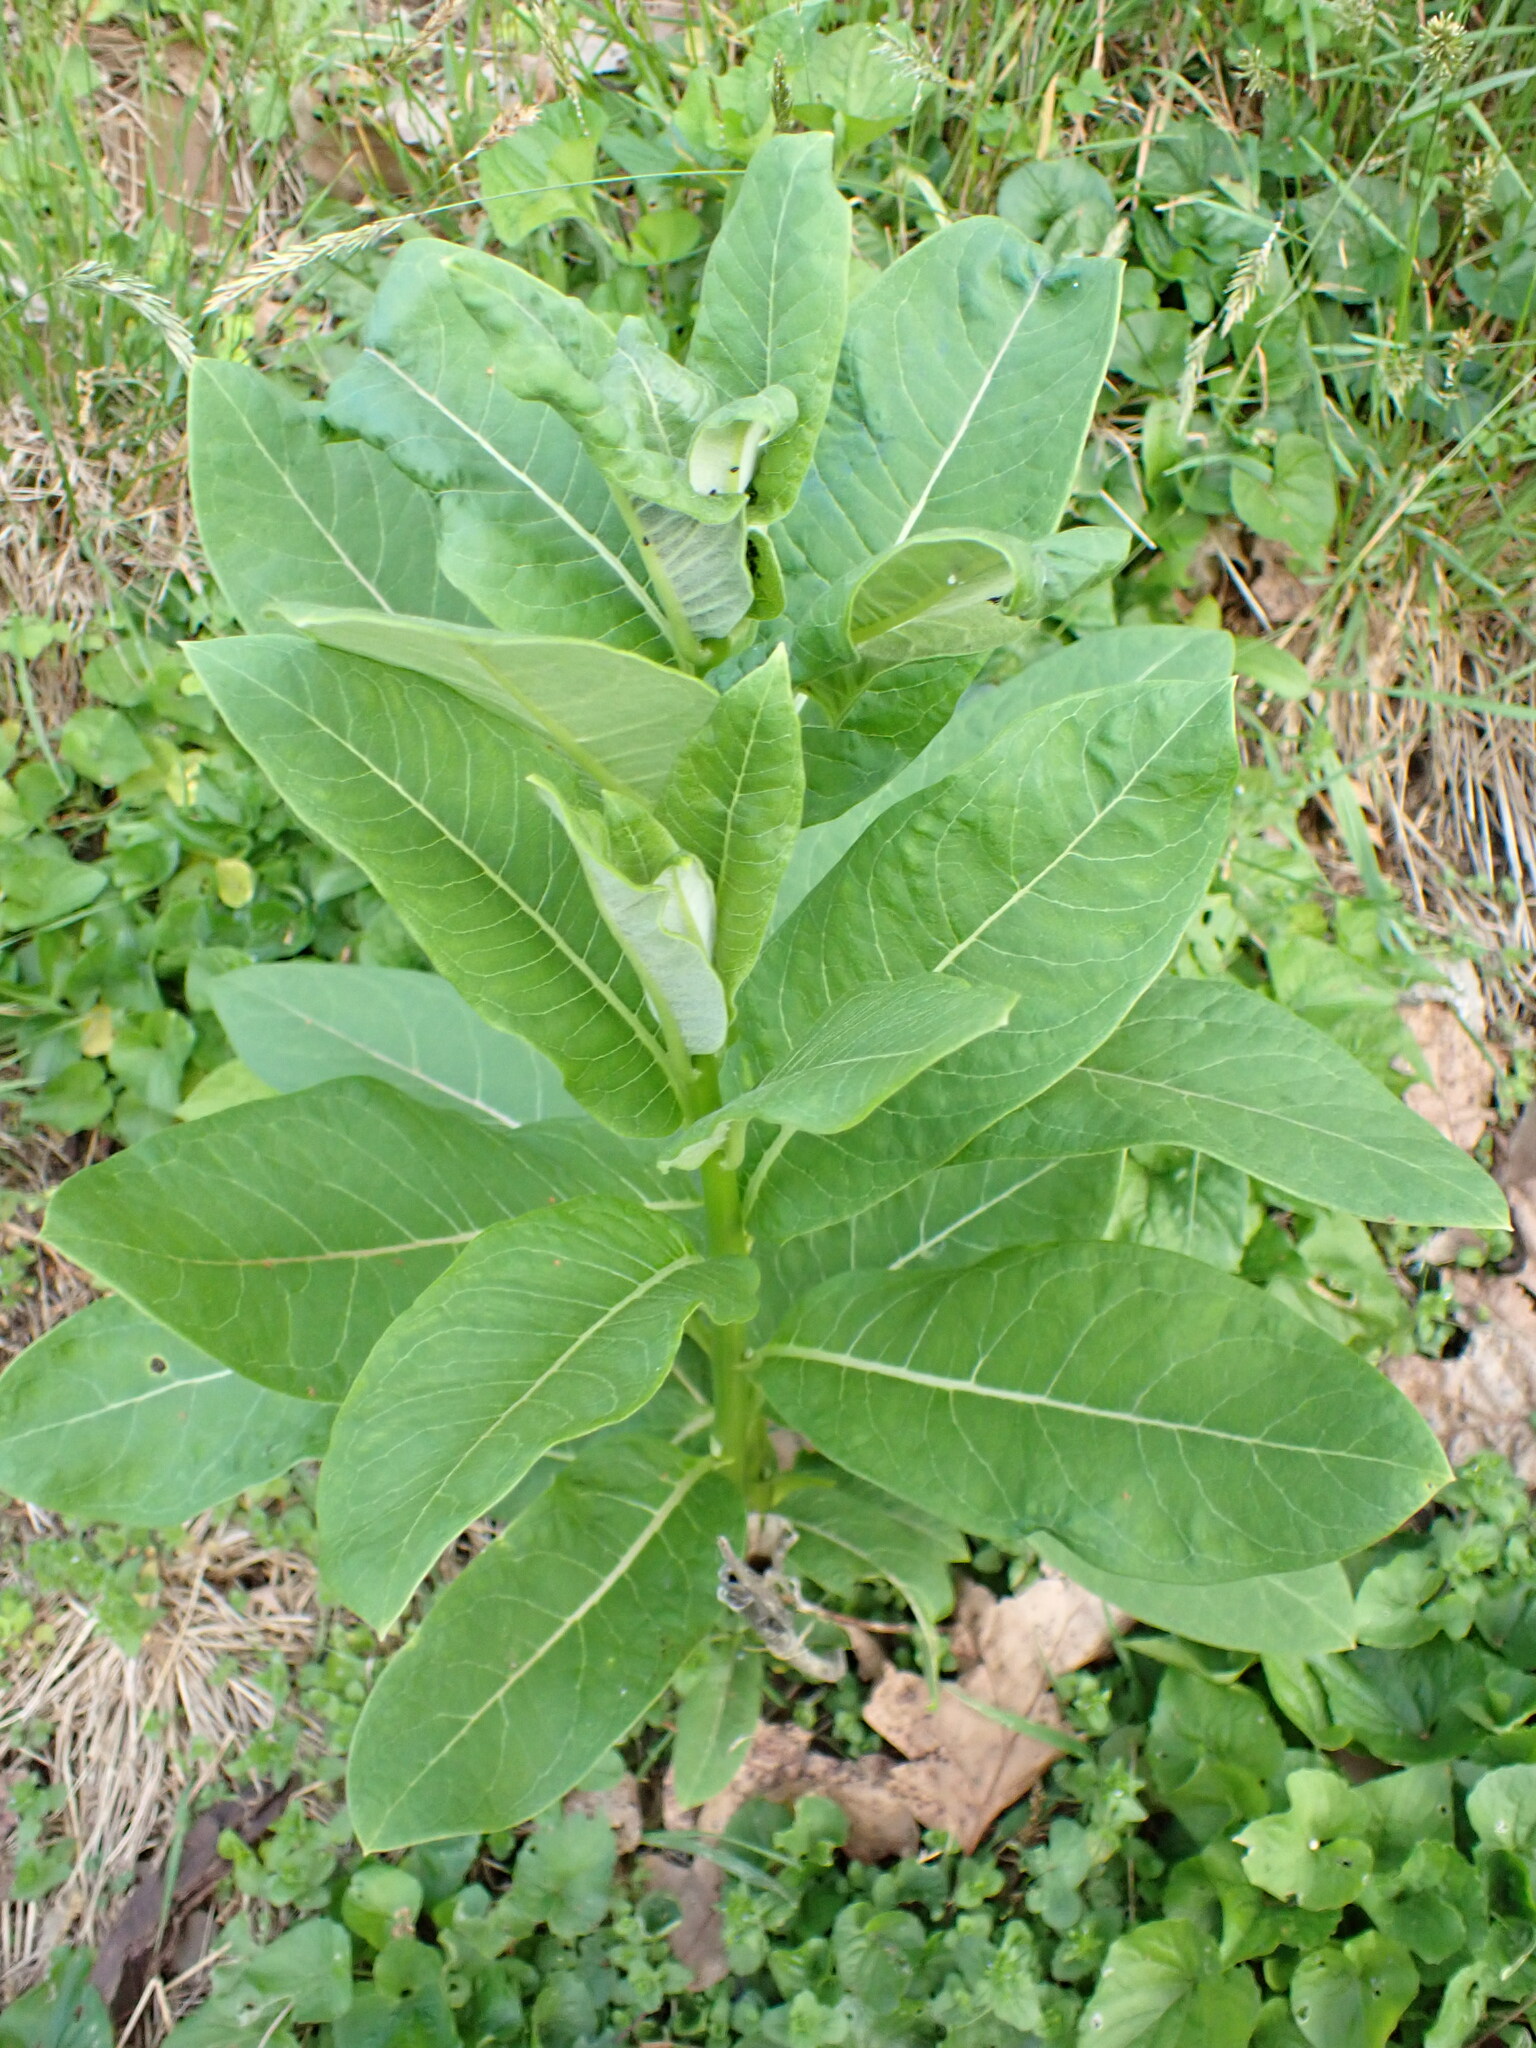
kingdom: Plantae
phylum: Tracheophyta
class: Magnoliopsida
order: Gentianales
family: Apocynaceae
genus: Asclepias
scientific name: Asclepias syriaca
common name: Common milkweed
